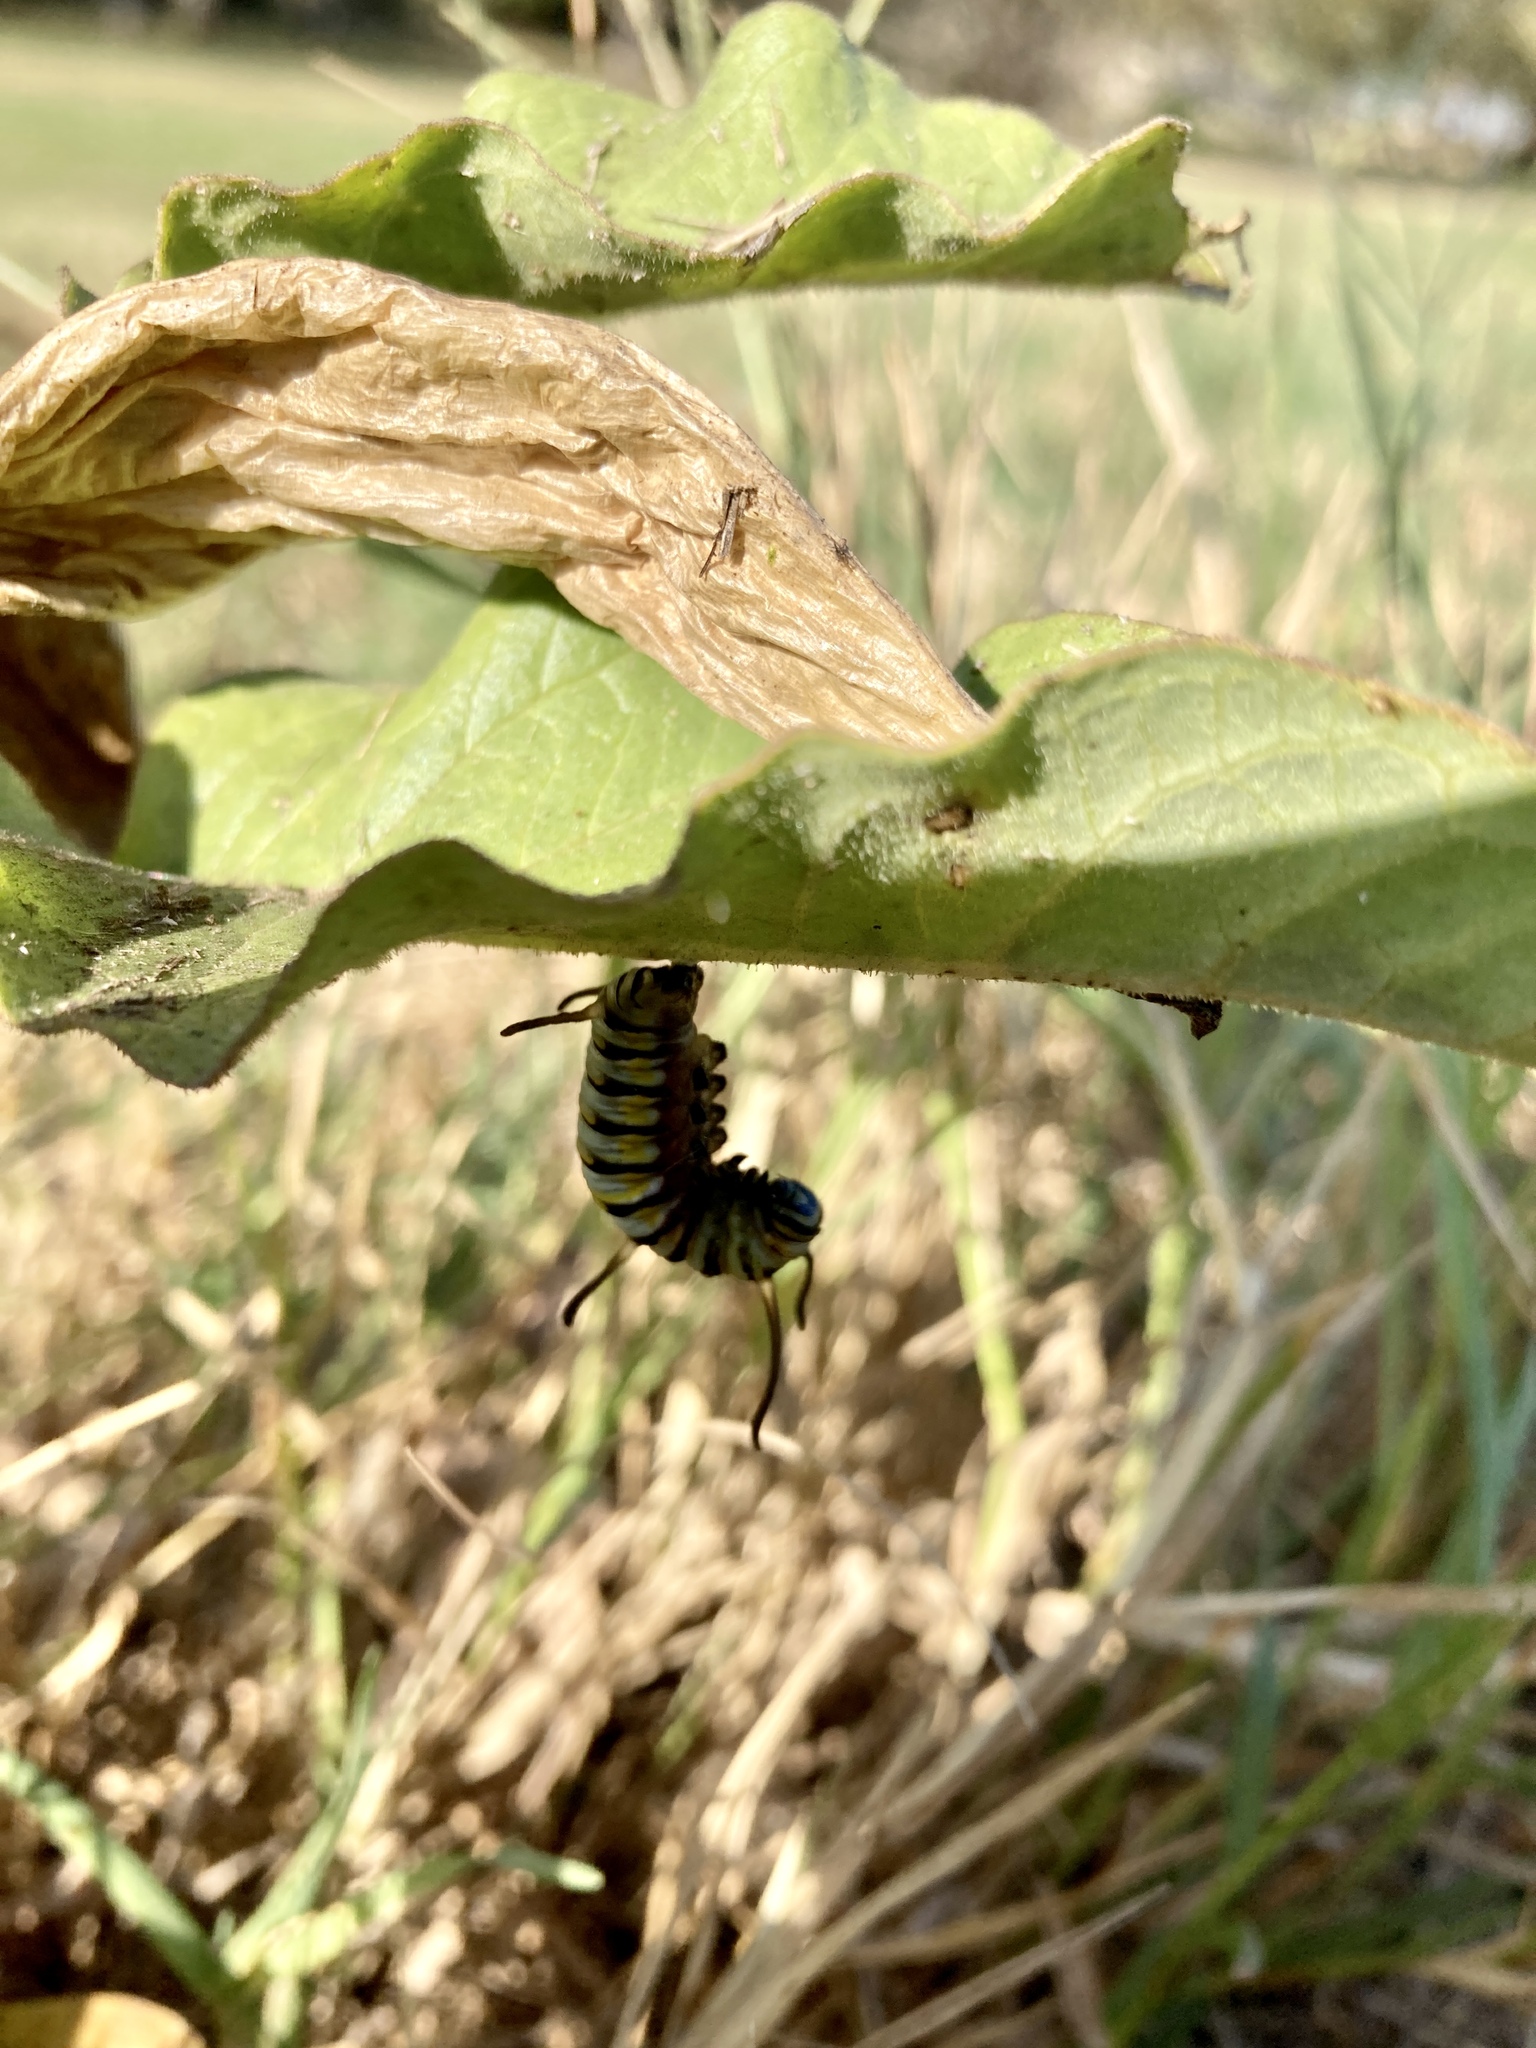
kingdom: Animalia
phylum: Arthropoda
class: Insecta
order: Lepidoptera
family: Nymphalidae
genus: Danaus
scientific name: Danaus gilippus
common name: Queen
